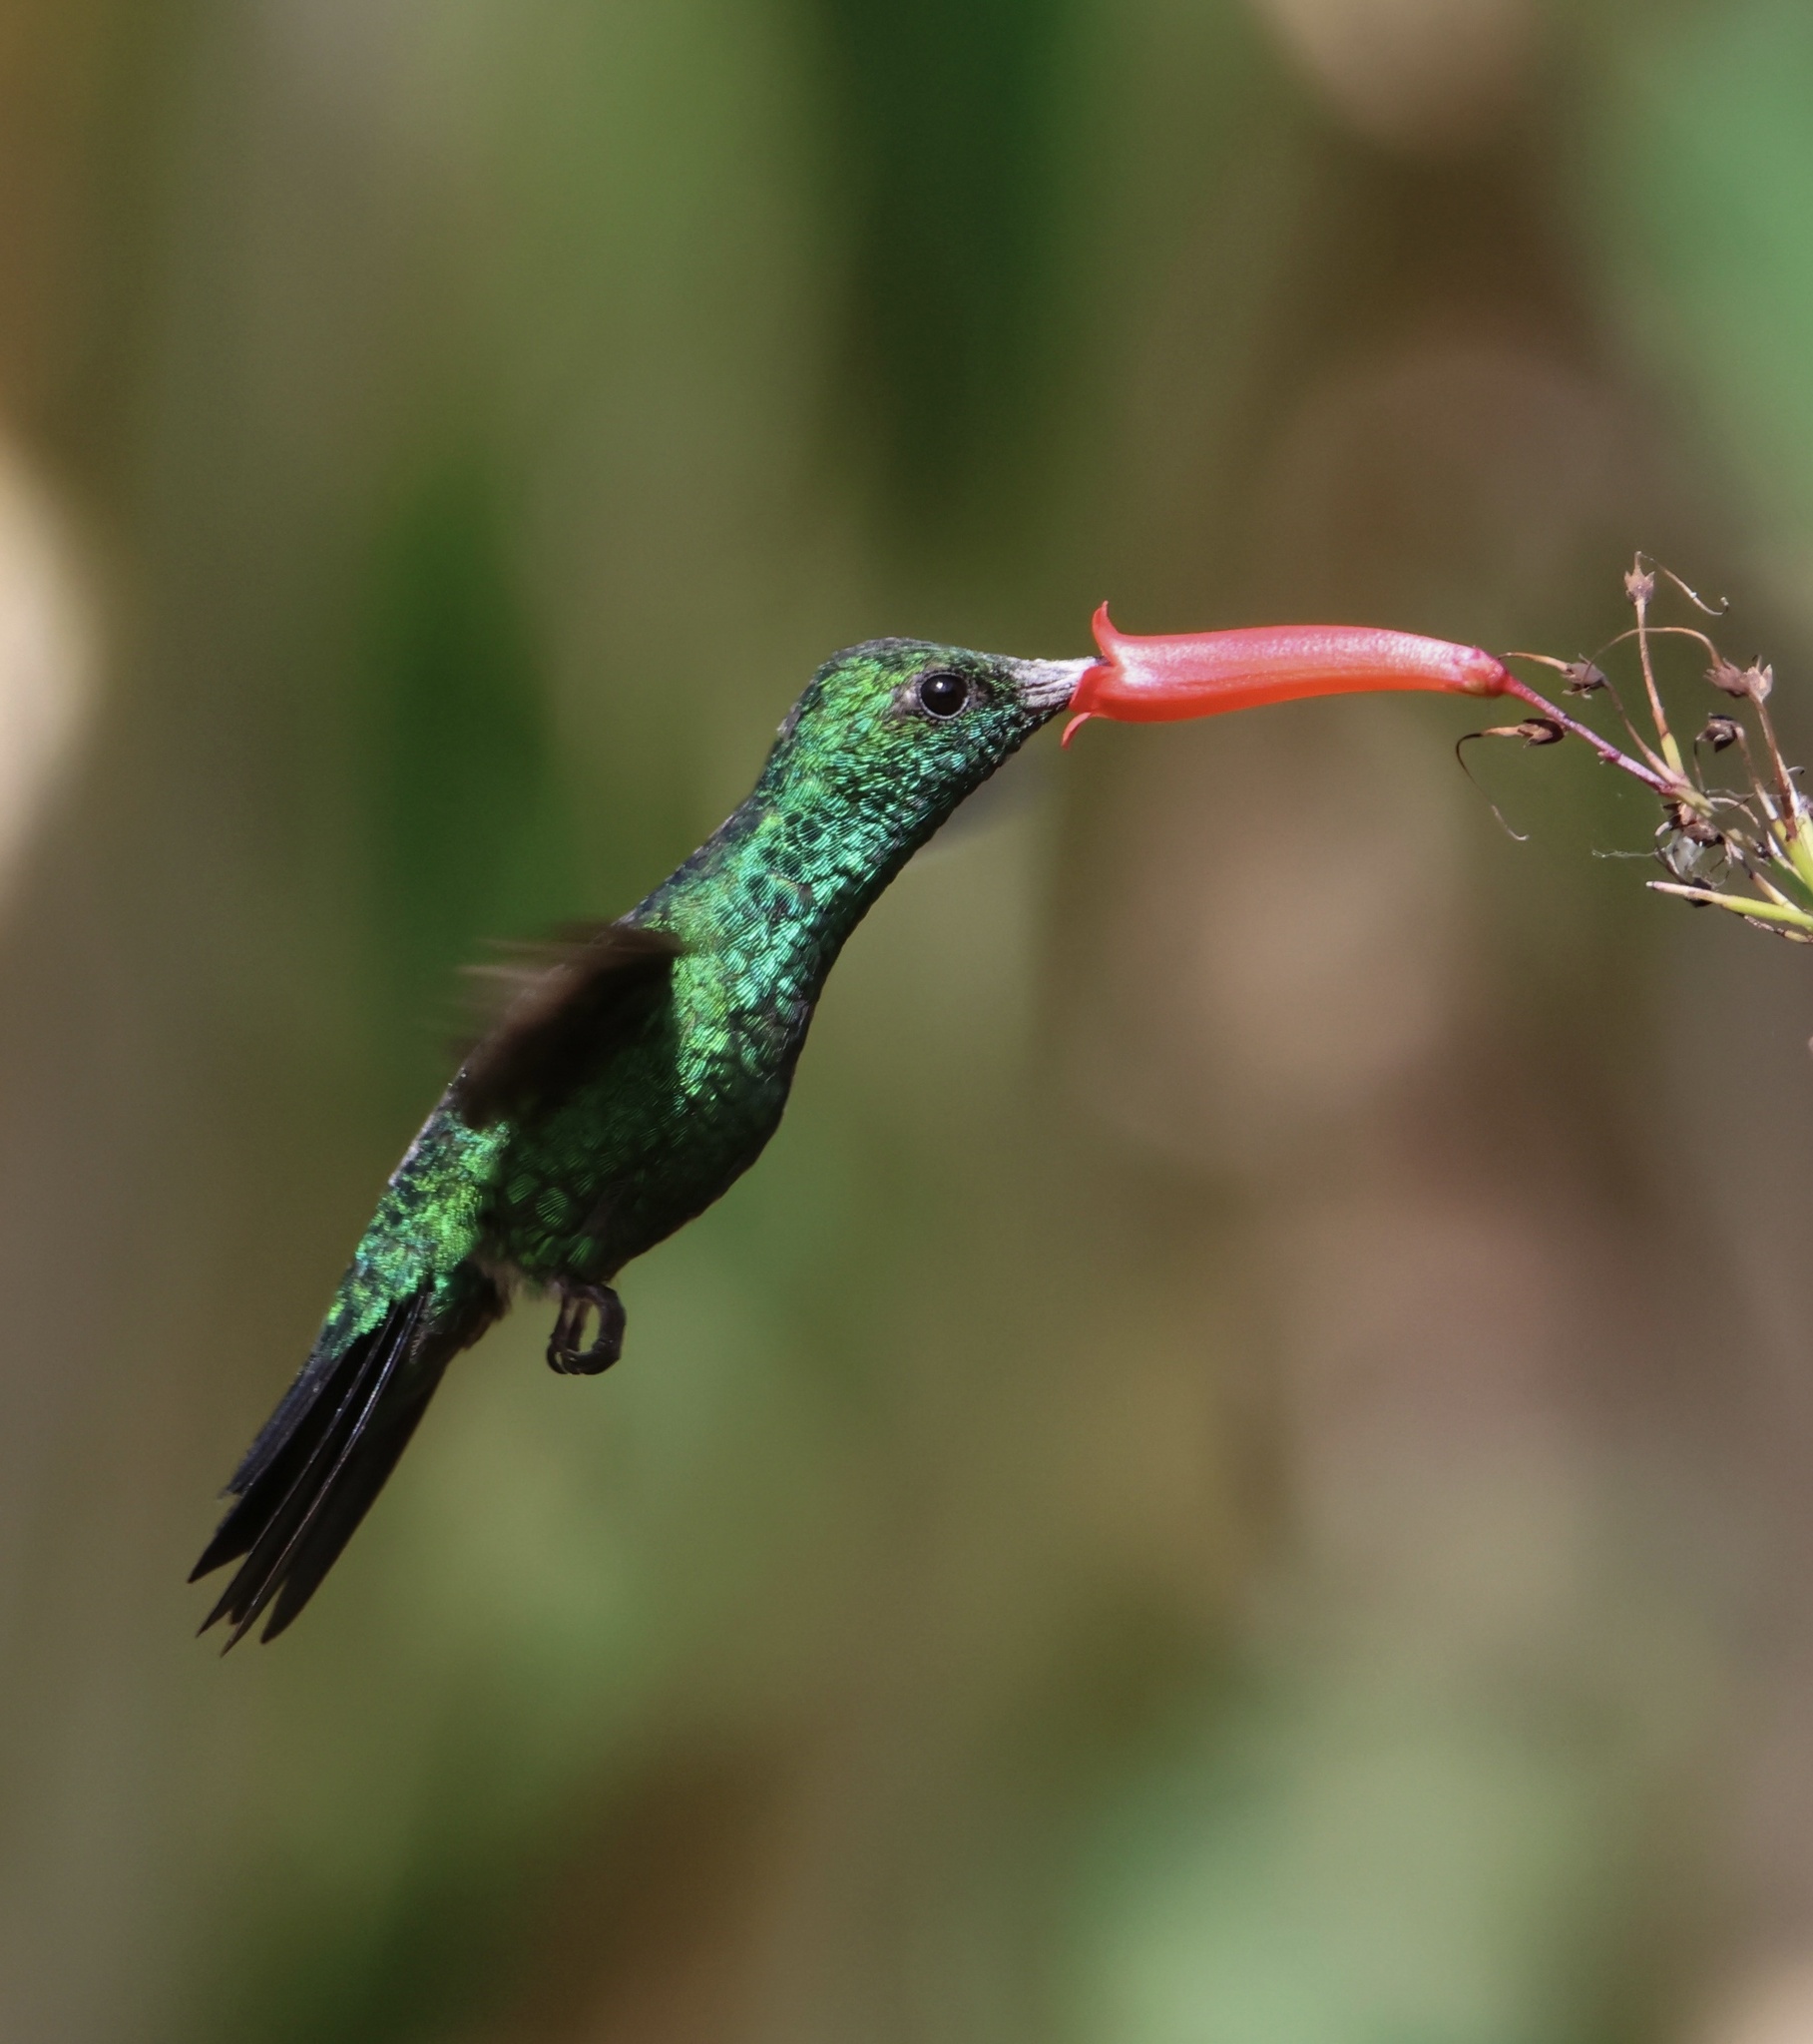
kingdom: Animalia
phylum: Chordata
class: Aves
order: Apodiformes
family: Trochilidae
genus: Chlorostilbon
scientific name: Chlorostilbon assimilis
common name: Garden emerald
